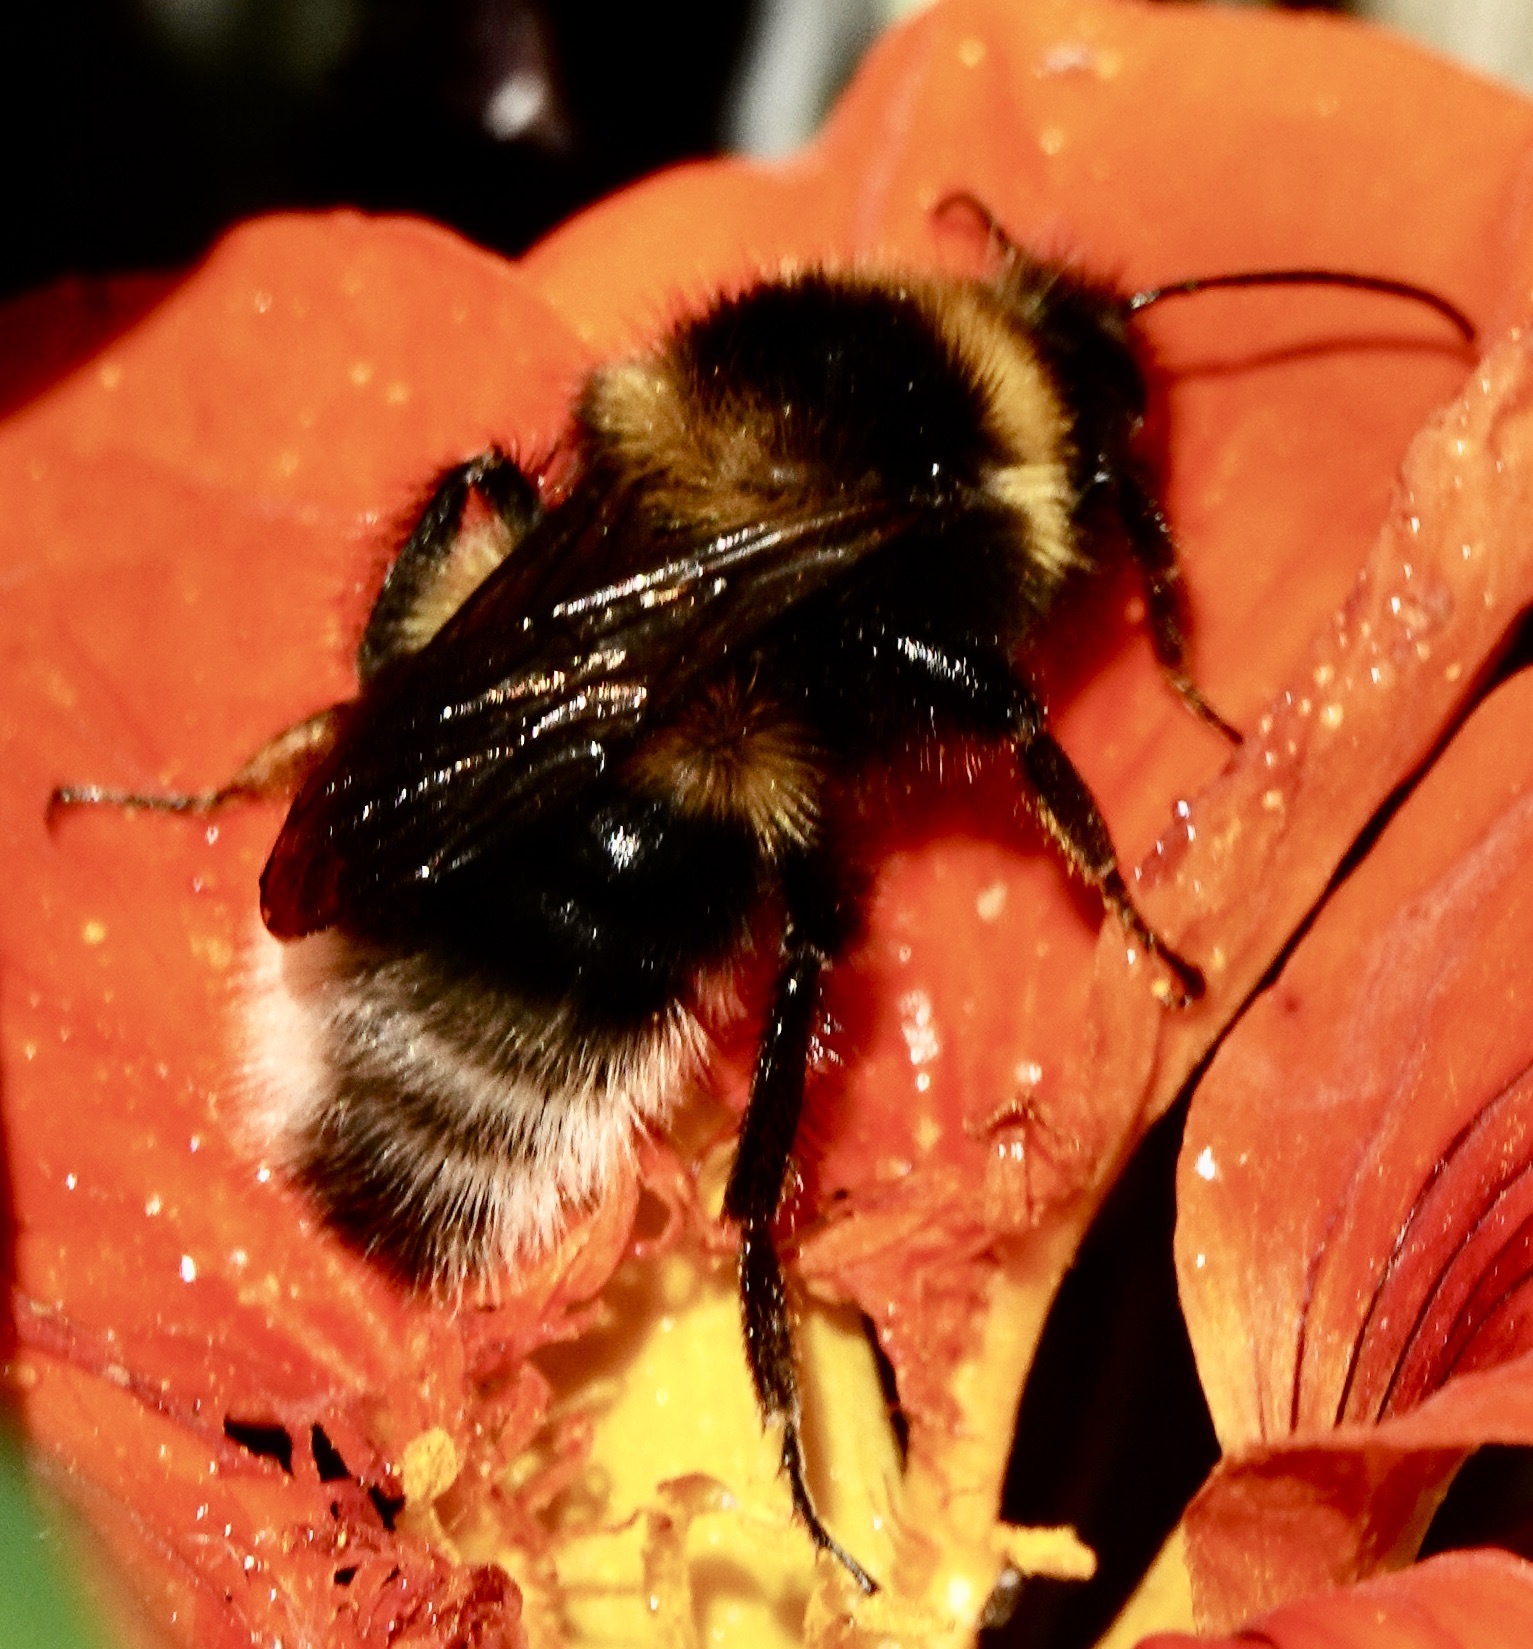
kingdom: Animalia
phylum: Arthropoda
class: Insecta
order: Hymenoptera
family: Apidae
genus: Bombus
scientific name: Bombus hortorum
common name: Garden bumblebee
